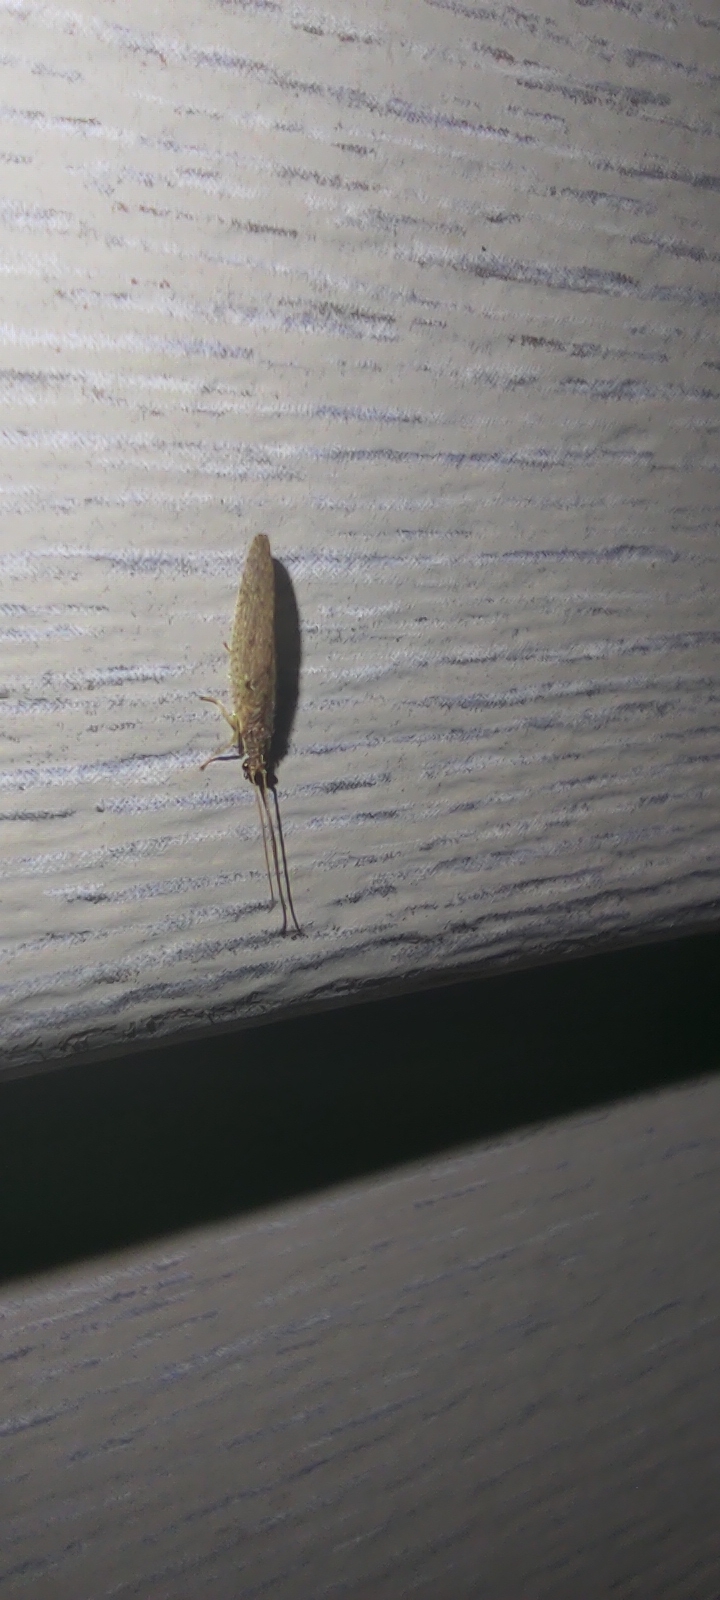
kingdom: Animalia
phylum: Arthropoda
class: Insecta
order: Neuroptera
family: Hemerobiidae
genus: Micromus
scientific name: Micromus subanticus
